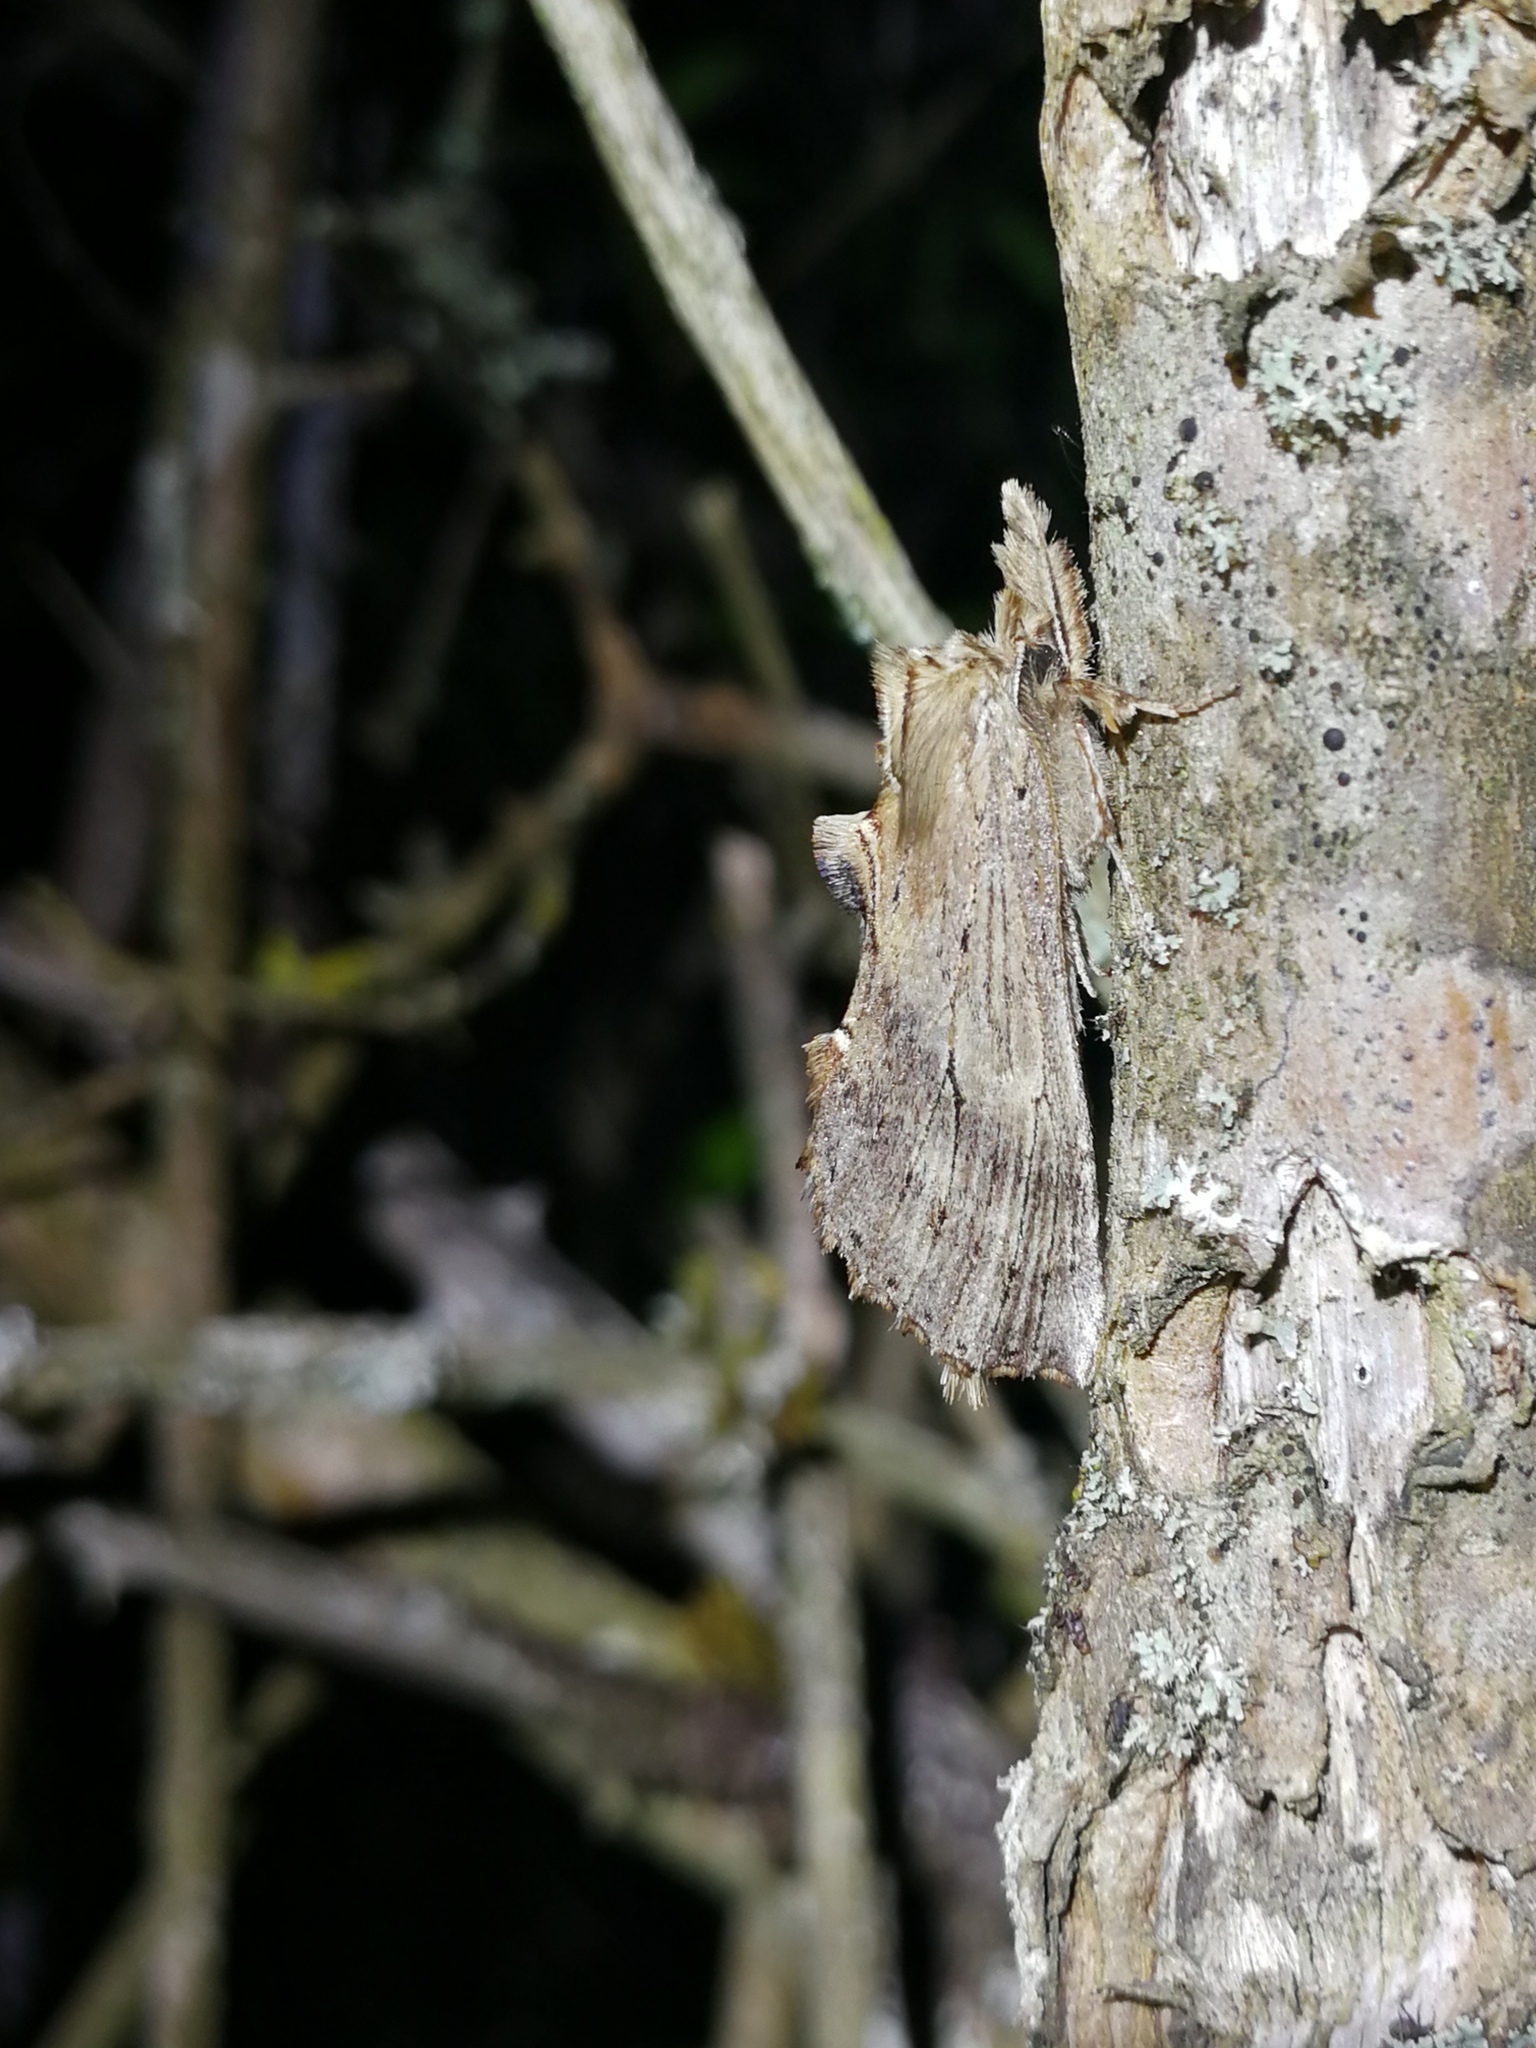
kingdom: Animalia
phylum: Arthropoda
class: Insecta
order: Lepidoptera
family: Notodontidae
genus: Pterostoma
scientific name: Pterostoma palpina
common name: Pale prominent
